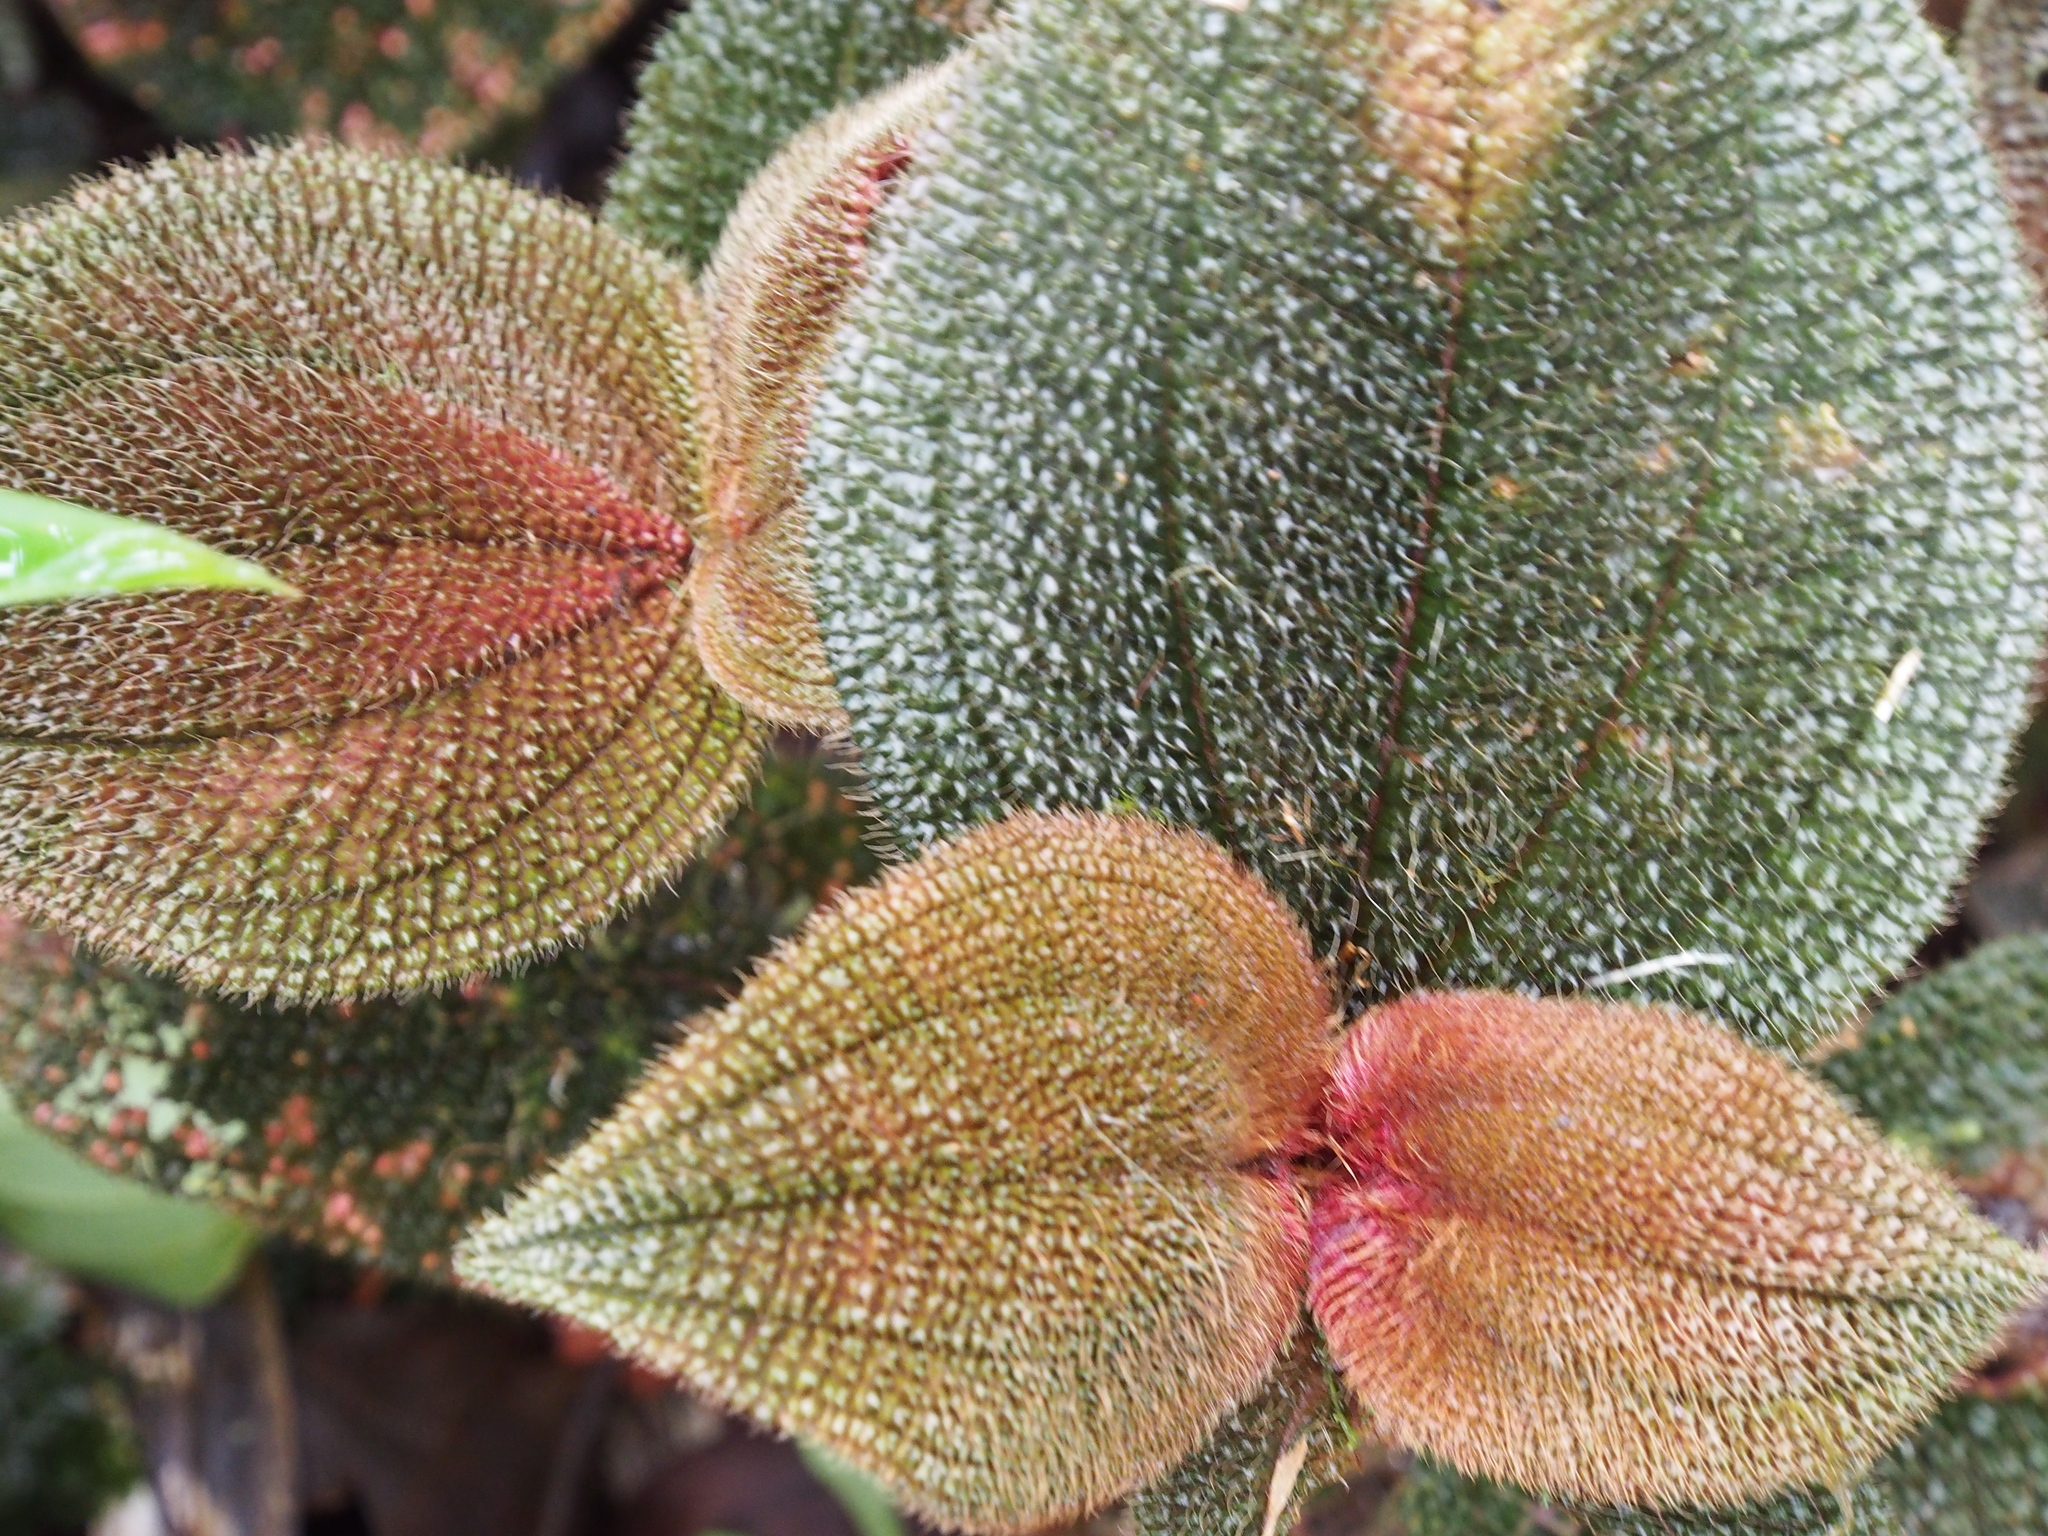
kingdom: Plantae
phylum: Tracheophyta
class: Magnoliopsida
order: Myrtales
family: Melastomataceae
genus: Miconia
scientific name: Miconia spectabilis
